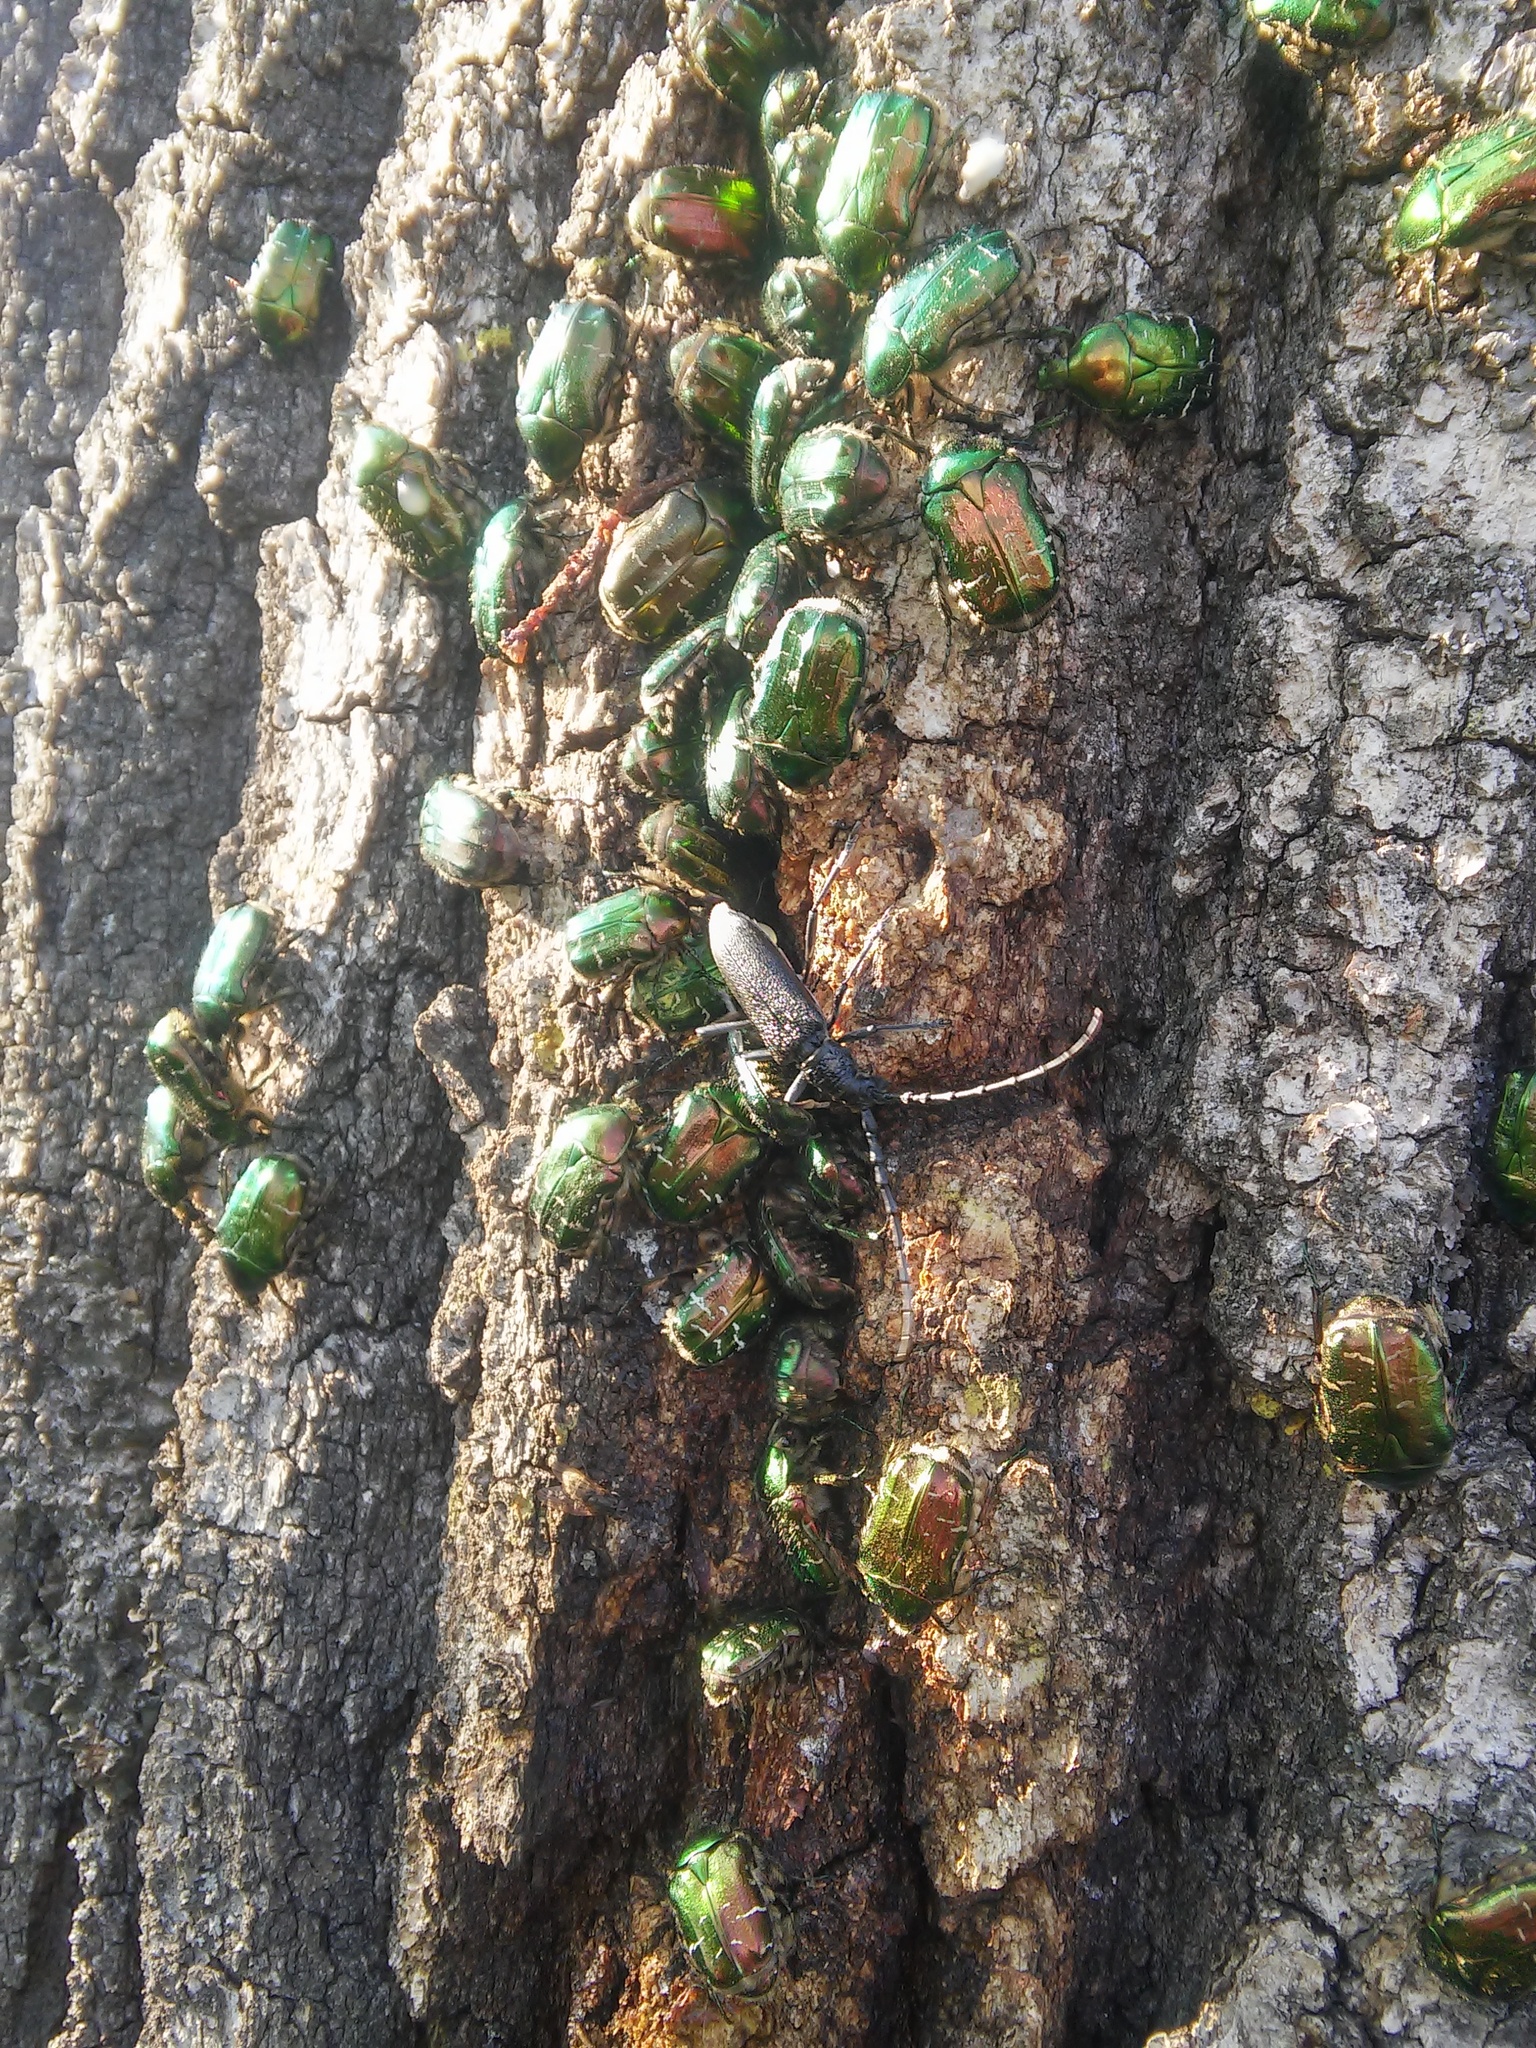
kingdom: Animalia
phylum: Arthropoda
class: Insecta
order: Coleoptera
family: Scarabaeidae
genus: Cetonia
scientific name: Cetonia aurata
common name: Rose chafer
